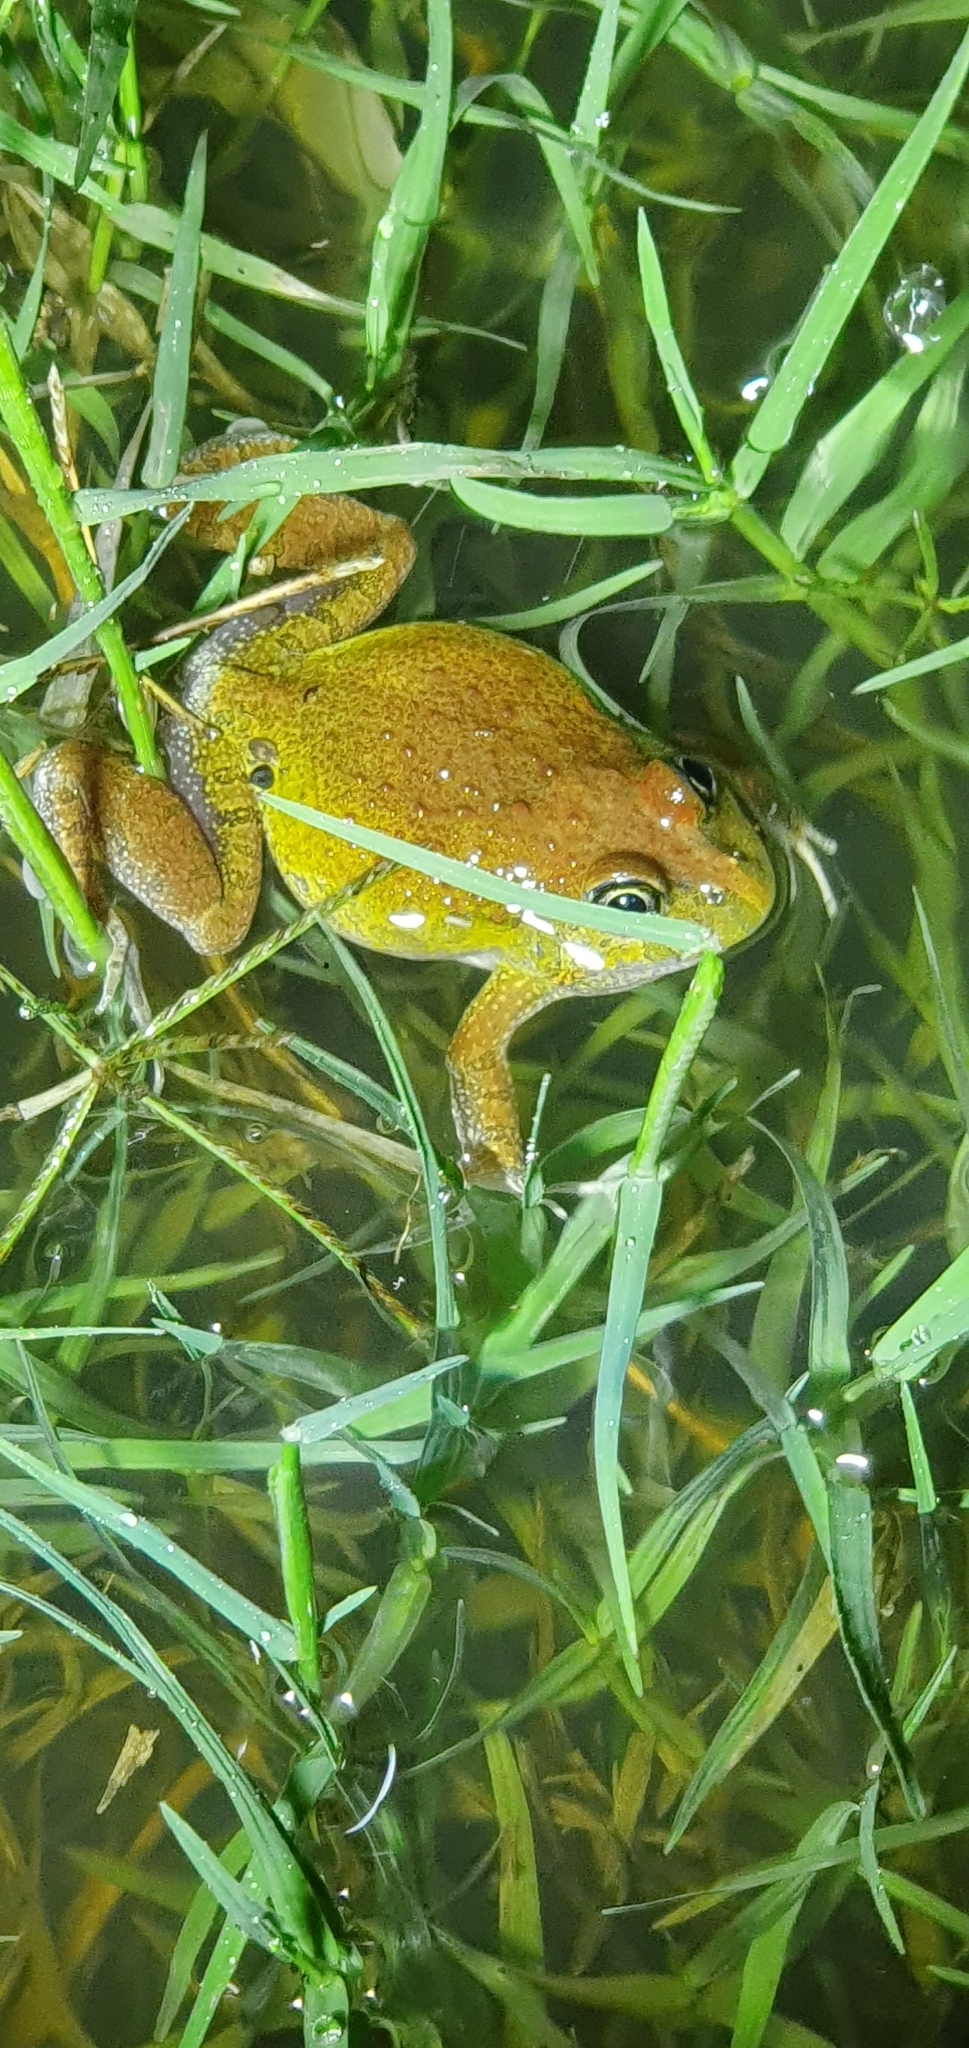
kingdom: Animalia
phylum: Chordata
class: Amphibia
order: Anura
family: Limnodynastidae
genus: Platyplectrum
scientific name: Platyplectrum ornatum
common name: Ornate burrowing frog
